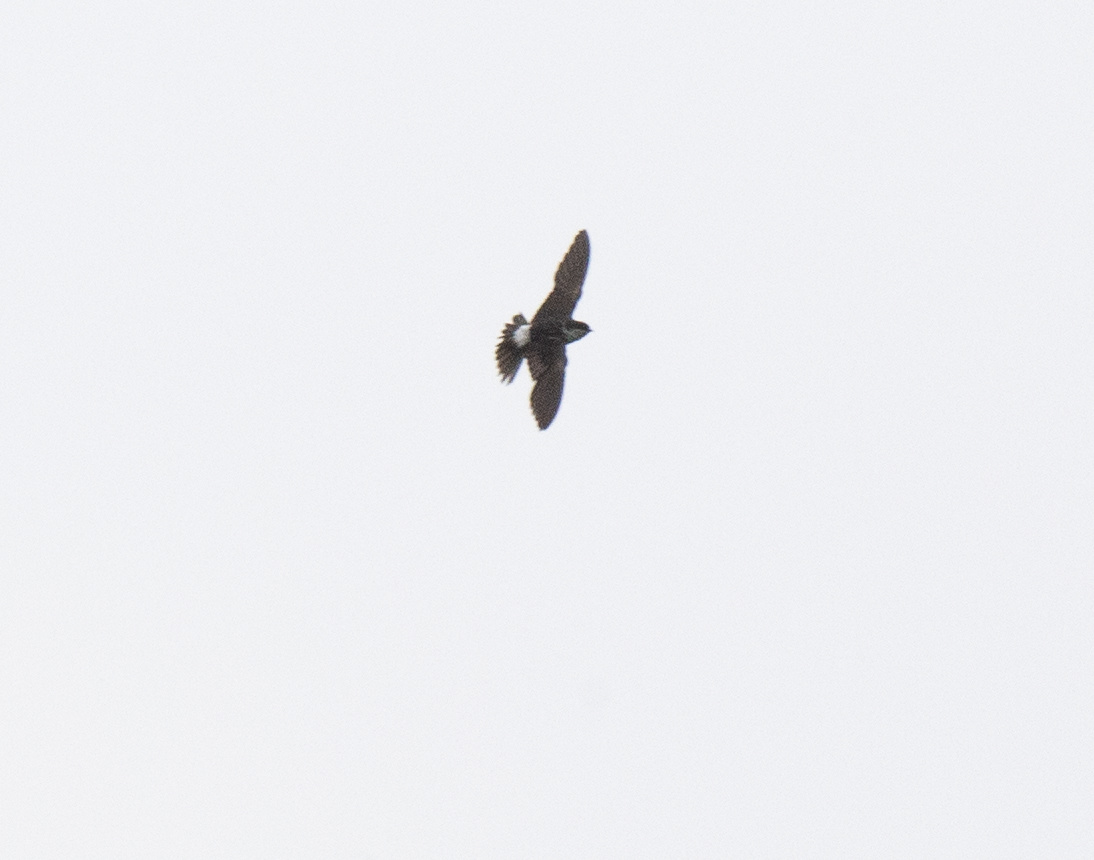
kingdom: Animalia
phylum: Chordata
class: Aves
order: Passeriformes
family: Hirundinidae
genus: Delichon
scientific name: Delichon urbicum
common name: Common house martin
